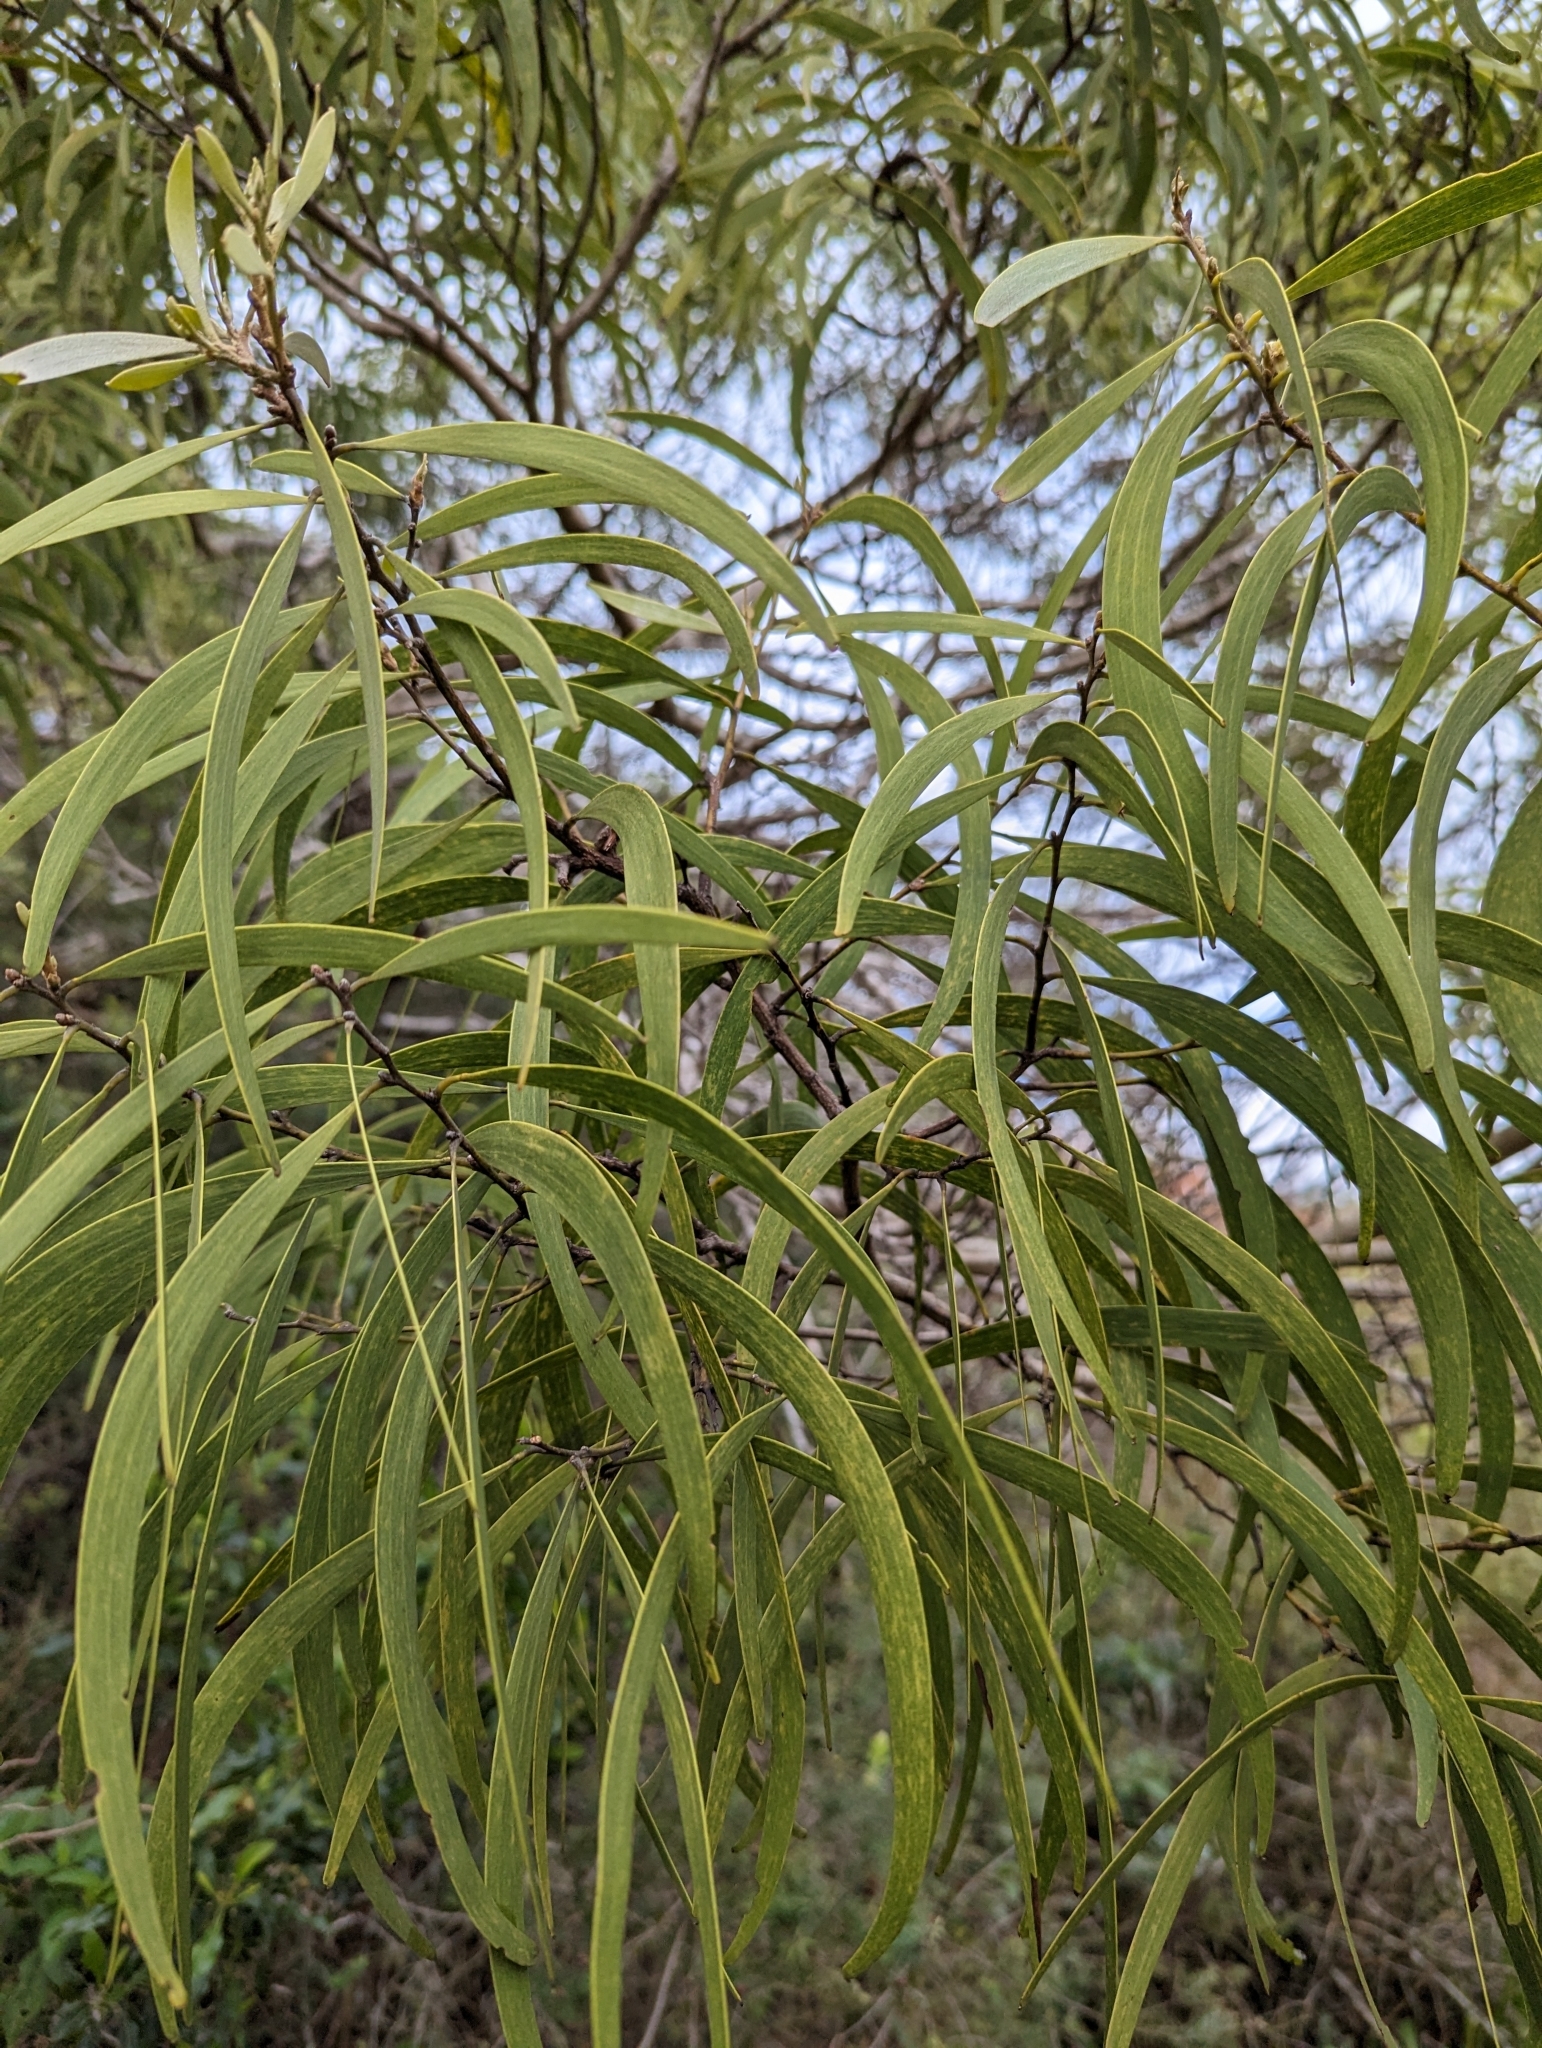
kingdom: Plantae
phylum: Tracheophyta
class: Magnoliopsida
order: Fabales
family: Fabaceae
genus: Acacia
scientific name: Acacia koa
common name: Gray koa
